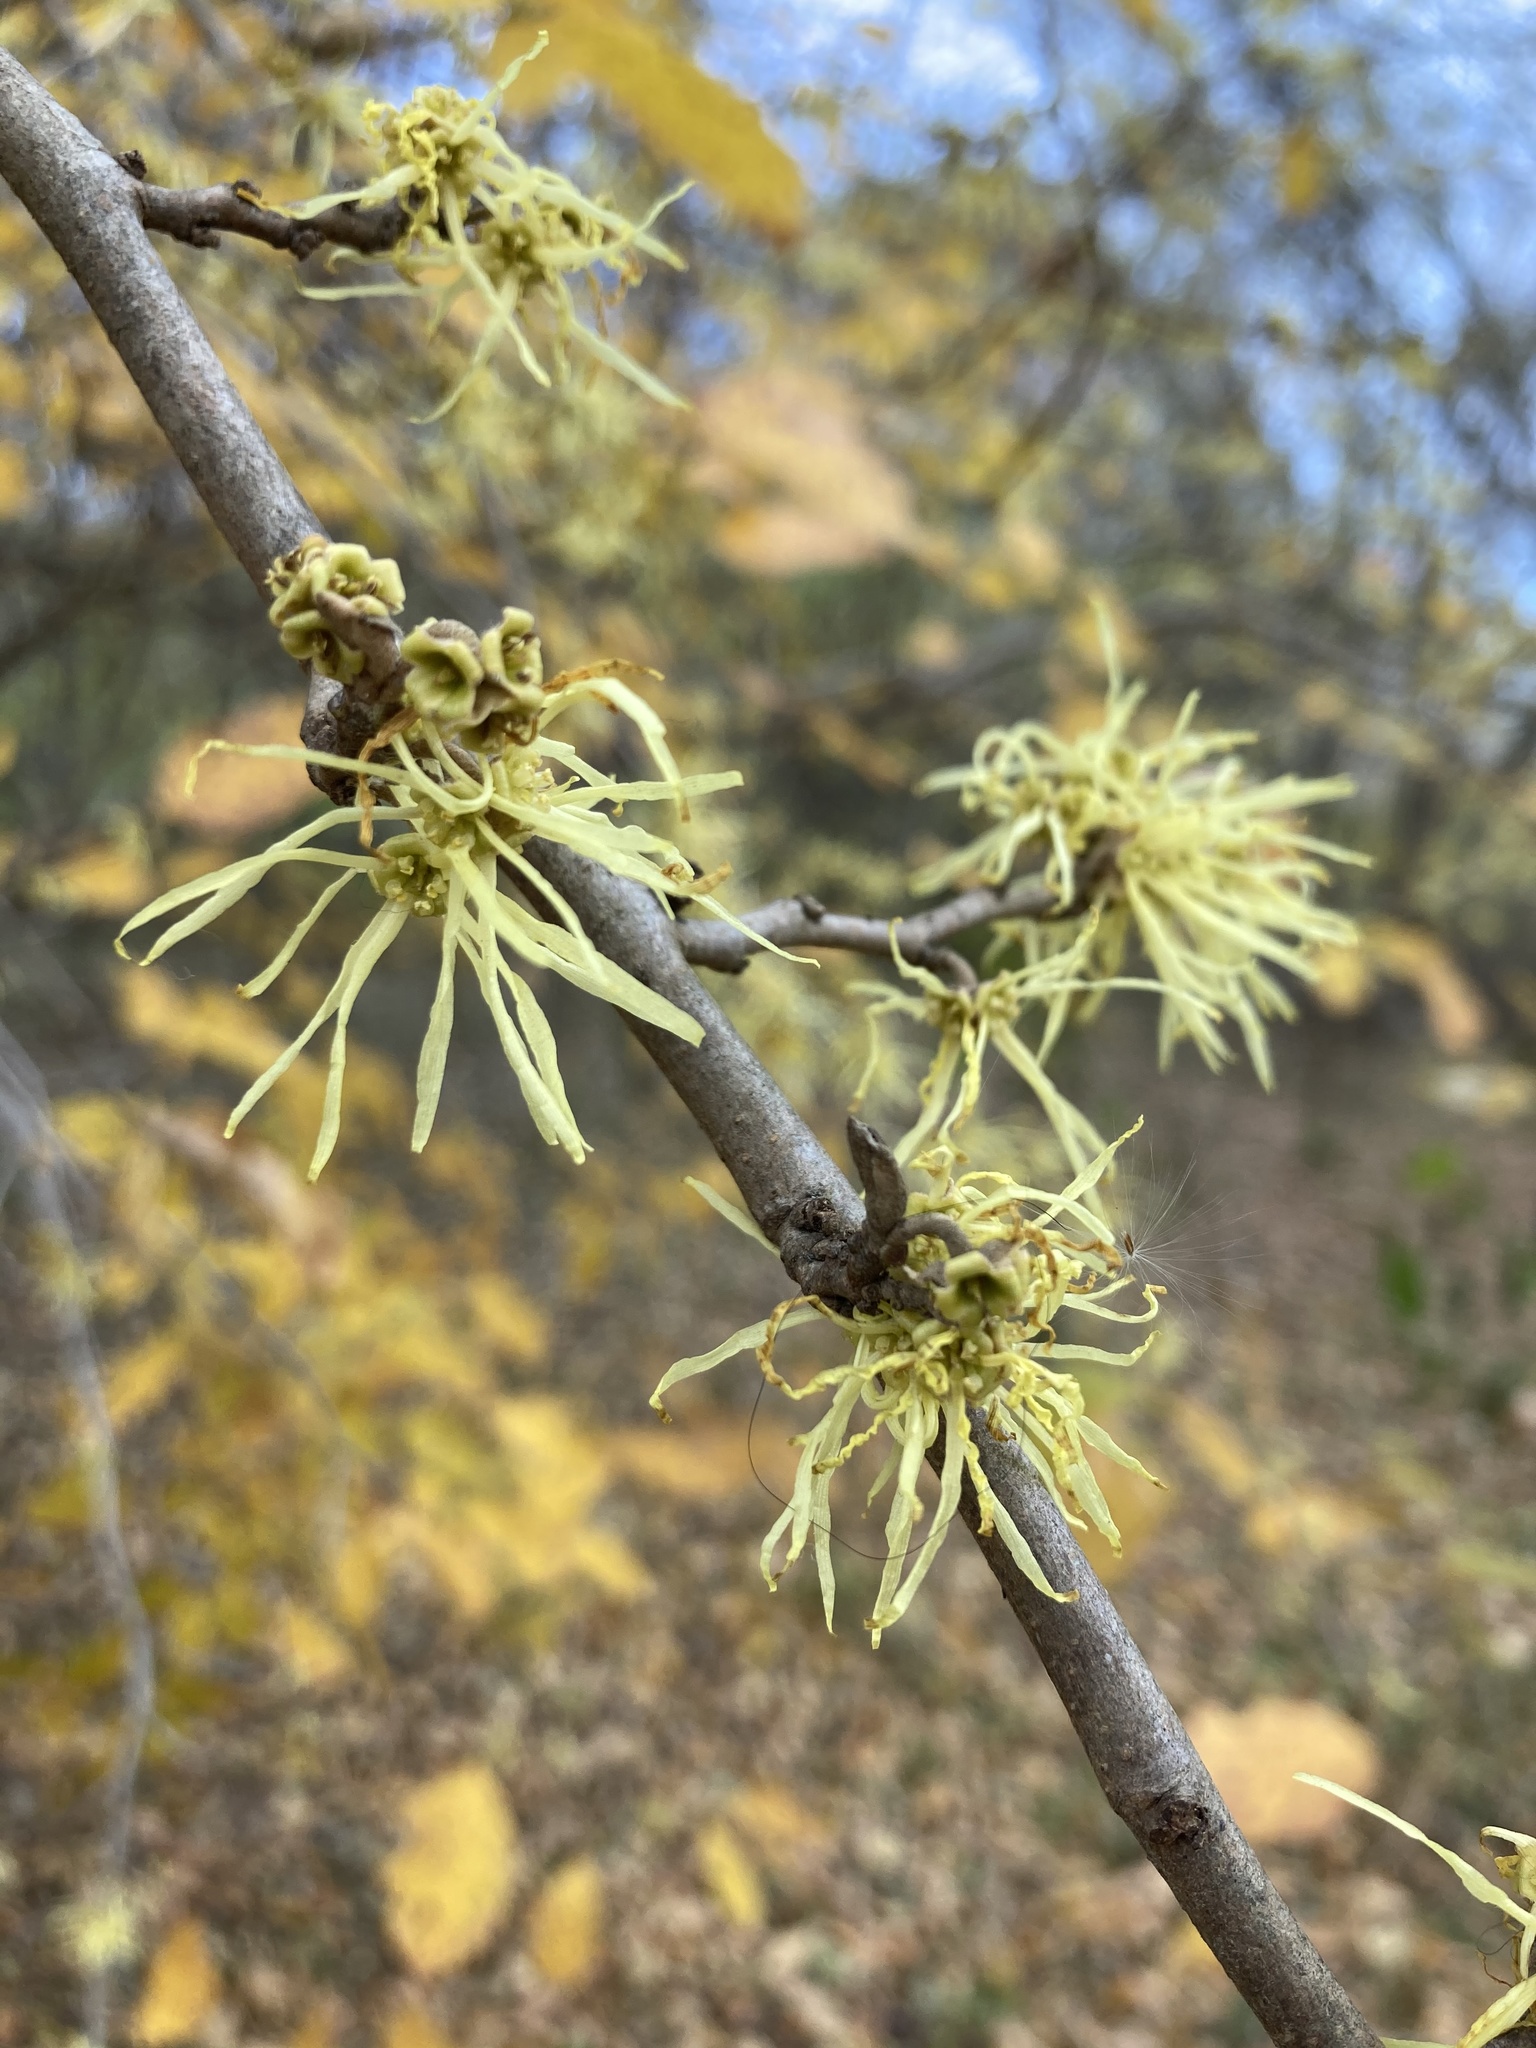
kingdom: Plantae
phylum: Tracheophyta
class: Magnoliopsida
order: Saxifragales
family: Hamamelidaceae
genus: Hamamelis
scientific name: Hamamelis virginiana
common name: Witch-hazel
